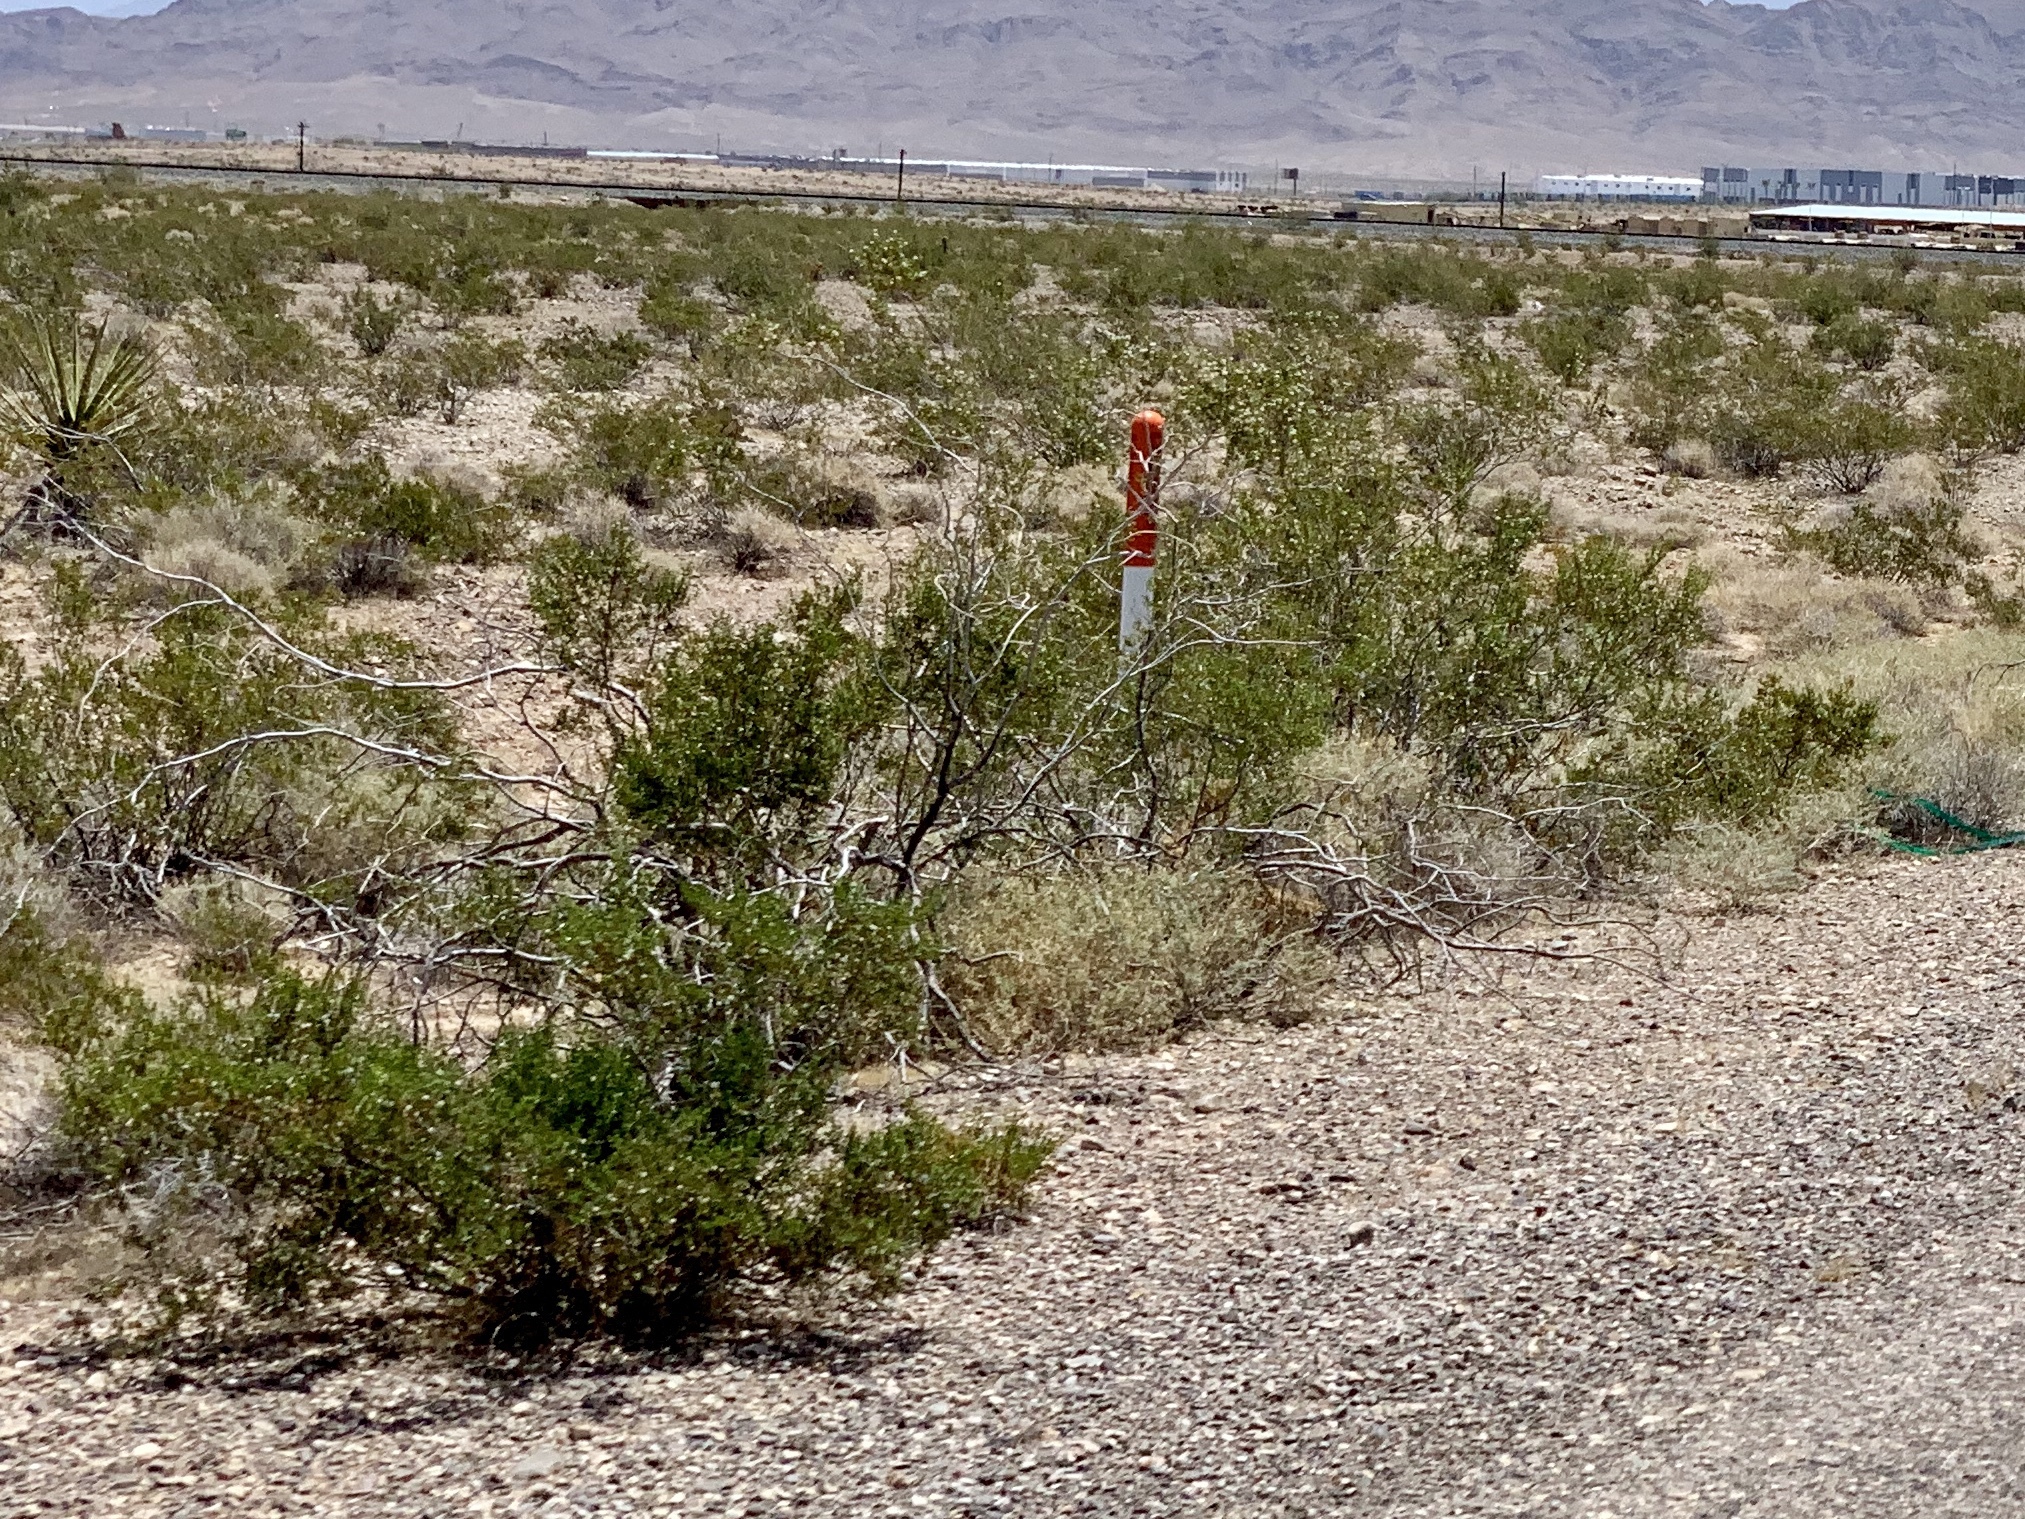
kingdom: Plantae
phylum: Tracheophyta
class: Magnoliopsida
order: Zygophyllales
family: Zygophyllaceae
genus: Larrea
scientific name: Larrea tridentata
